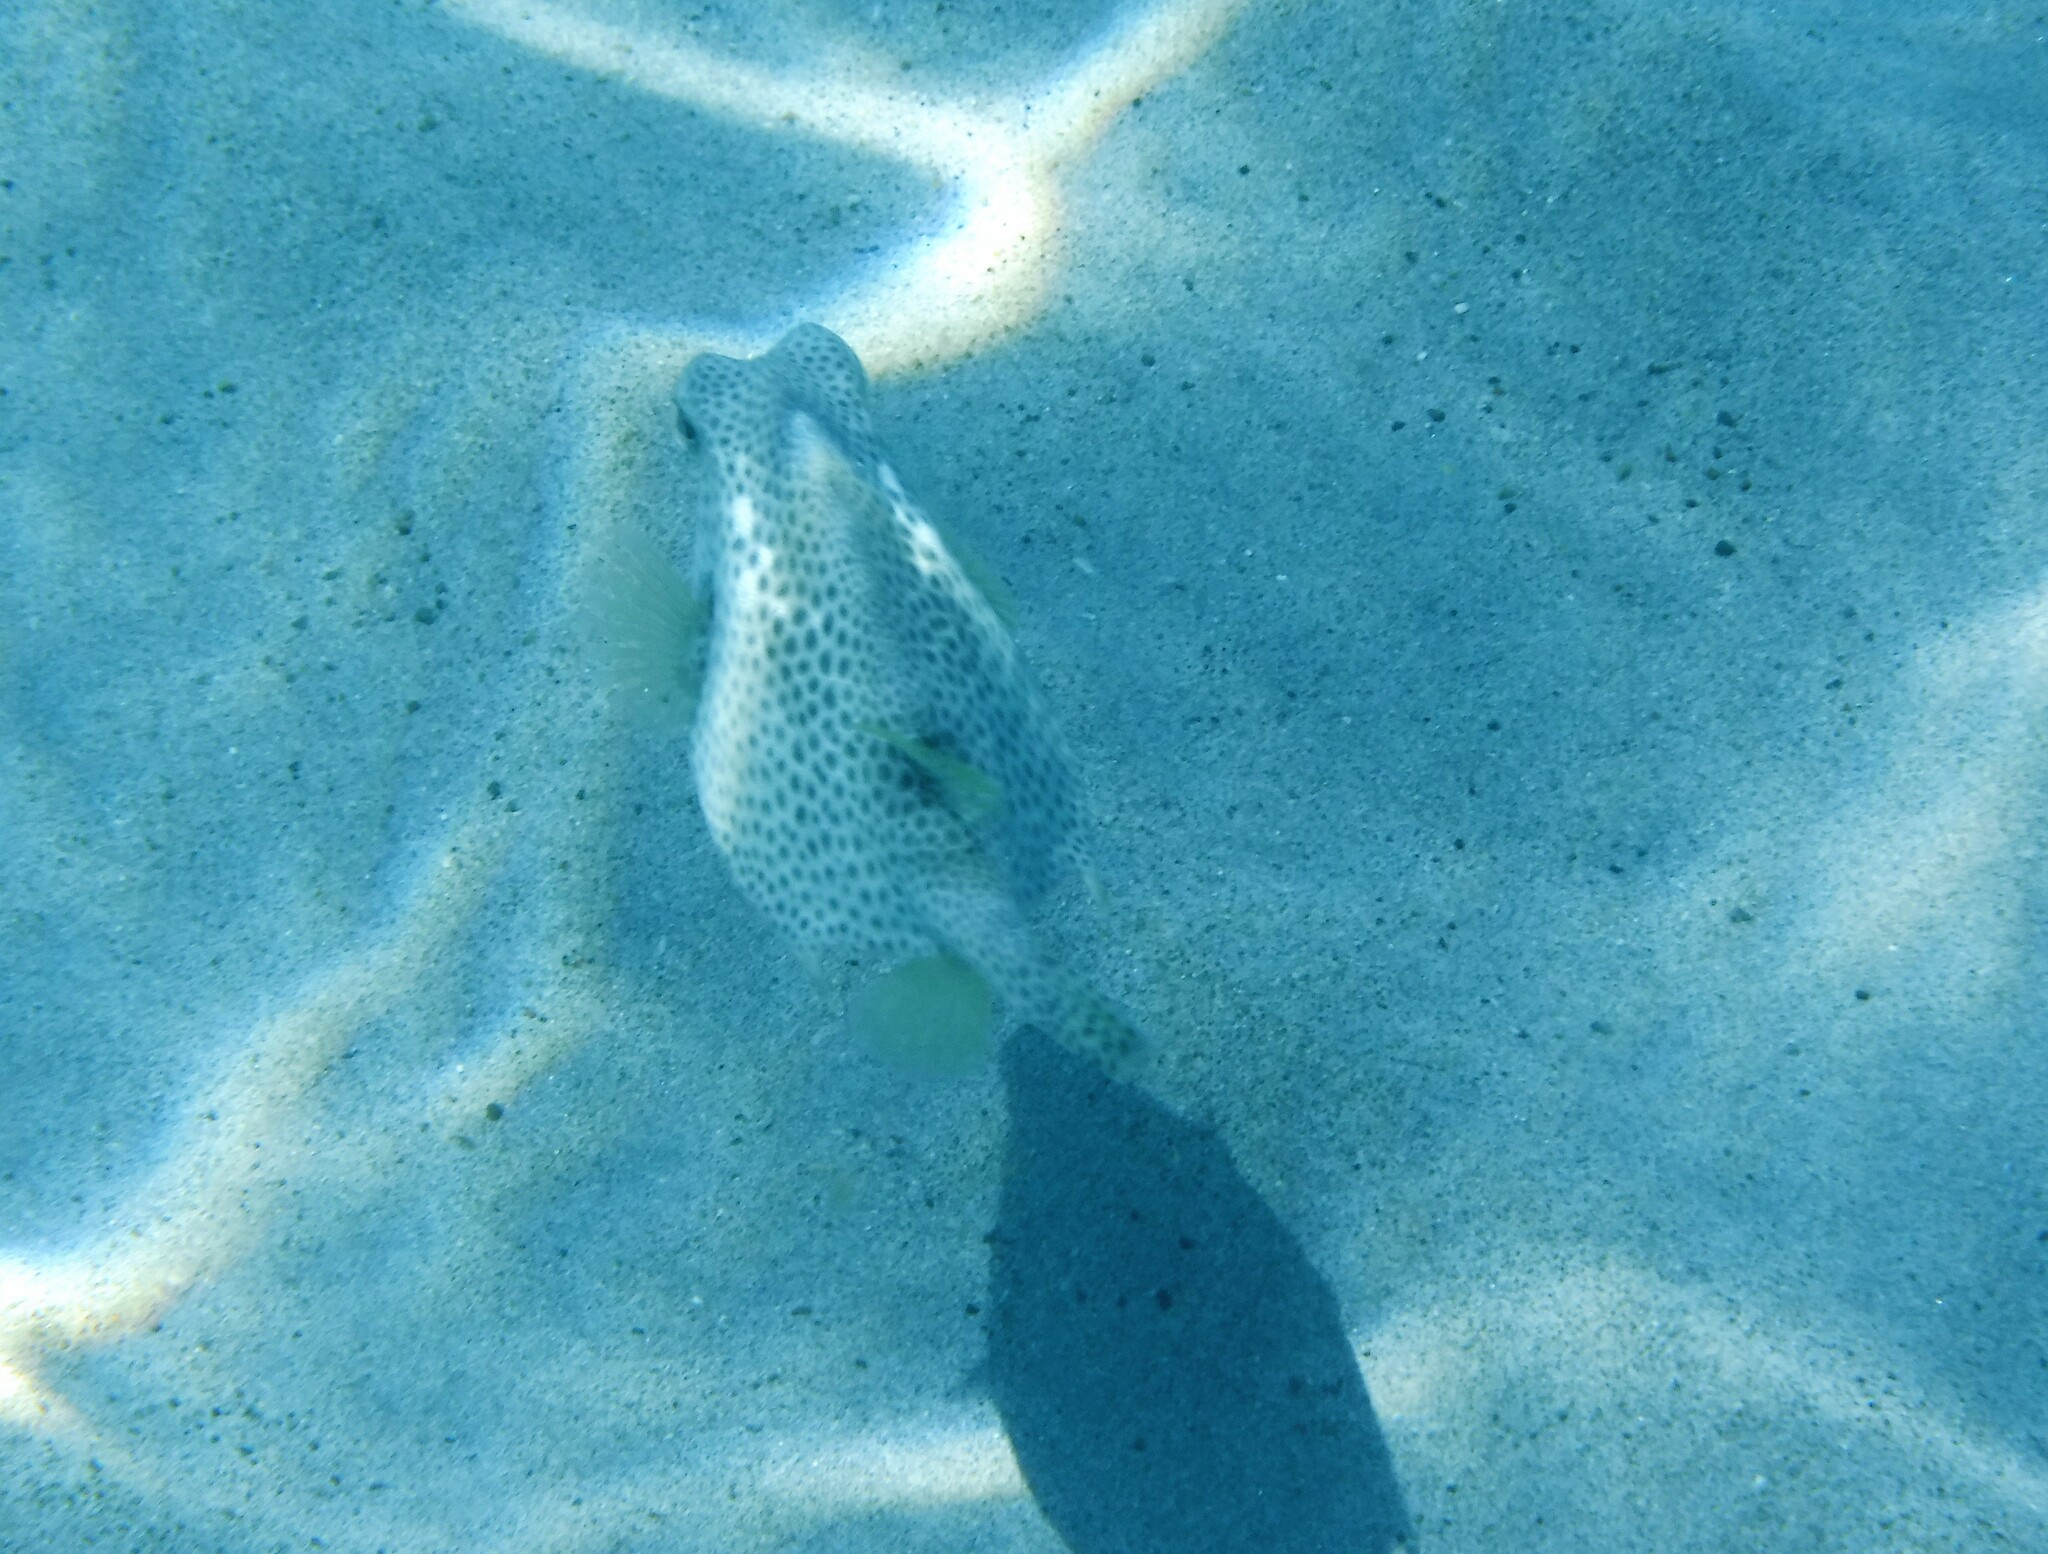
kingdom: Animalia
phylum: Chordata
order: Tetraodontiformes
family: Ostraciidae
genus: Lactophrys
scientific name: Lactophrys bicaudalis
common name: Spotted trunkfish
